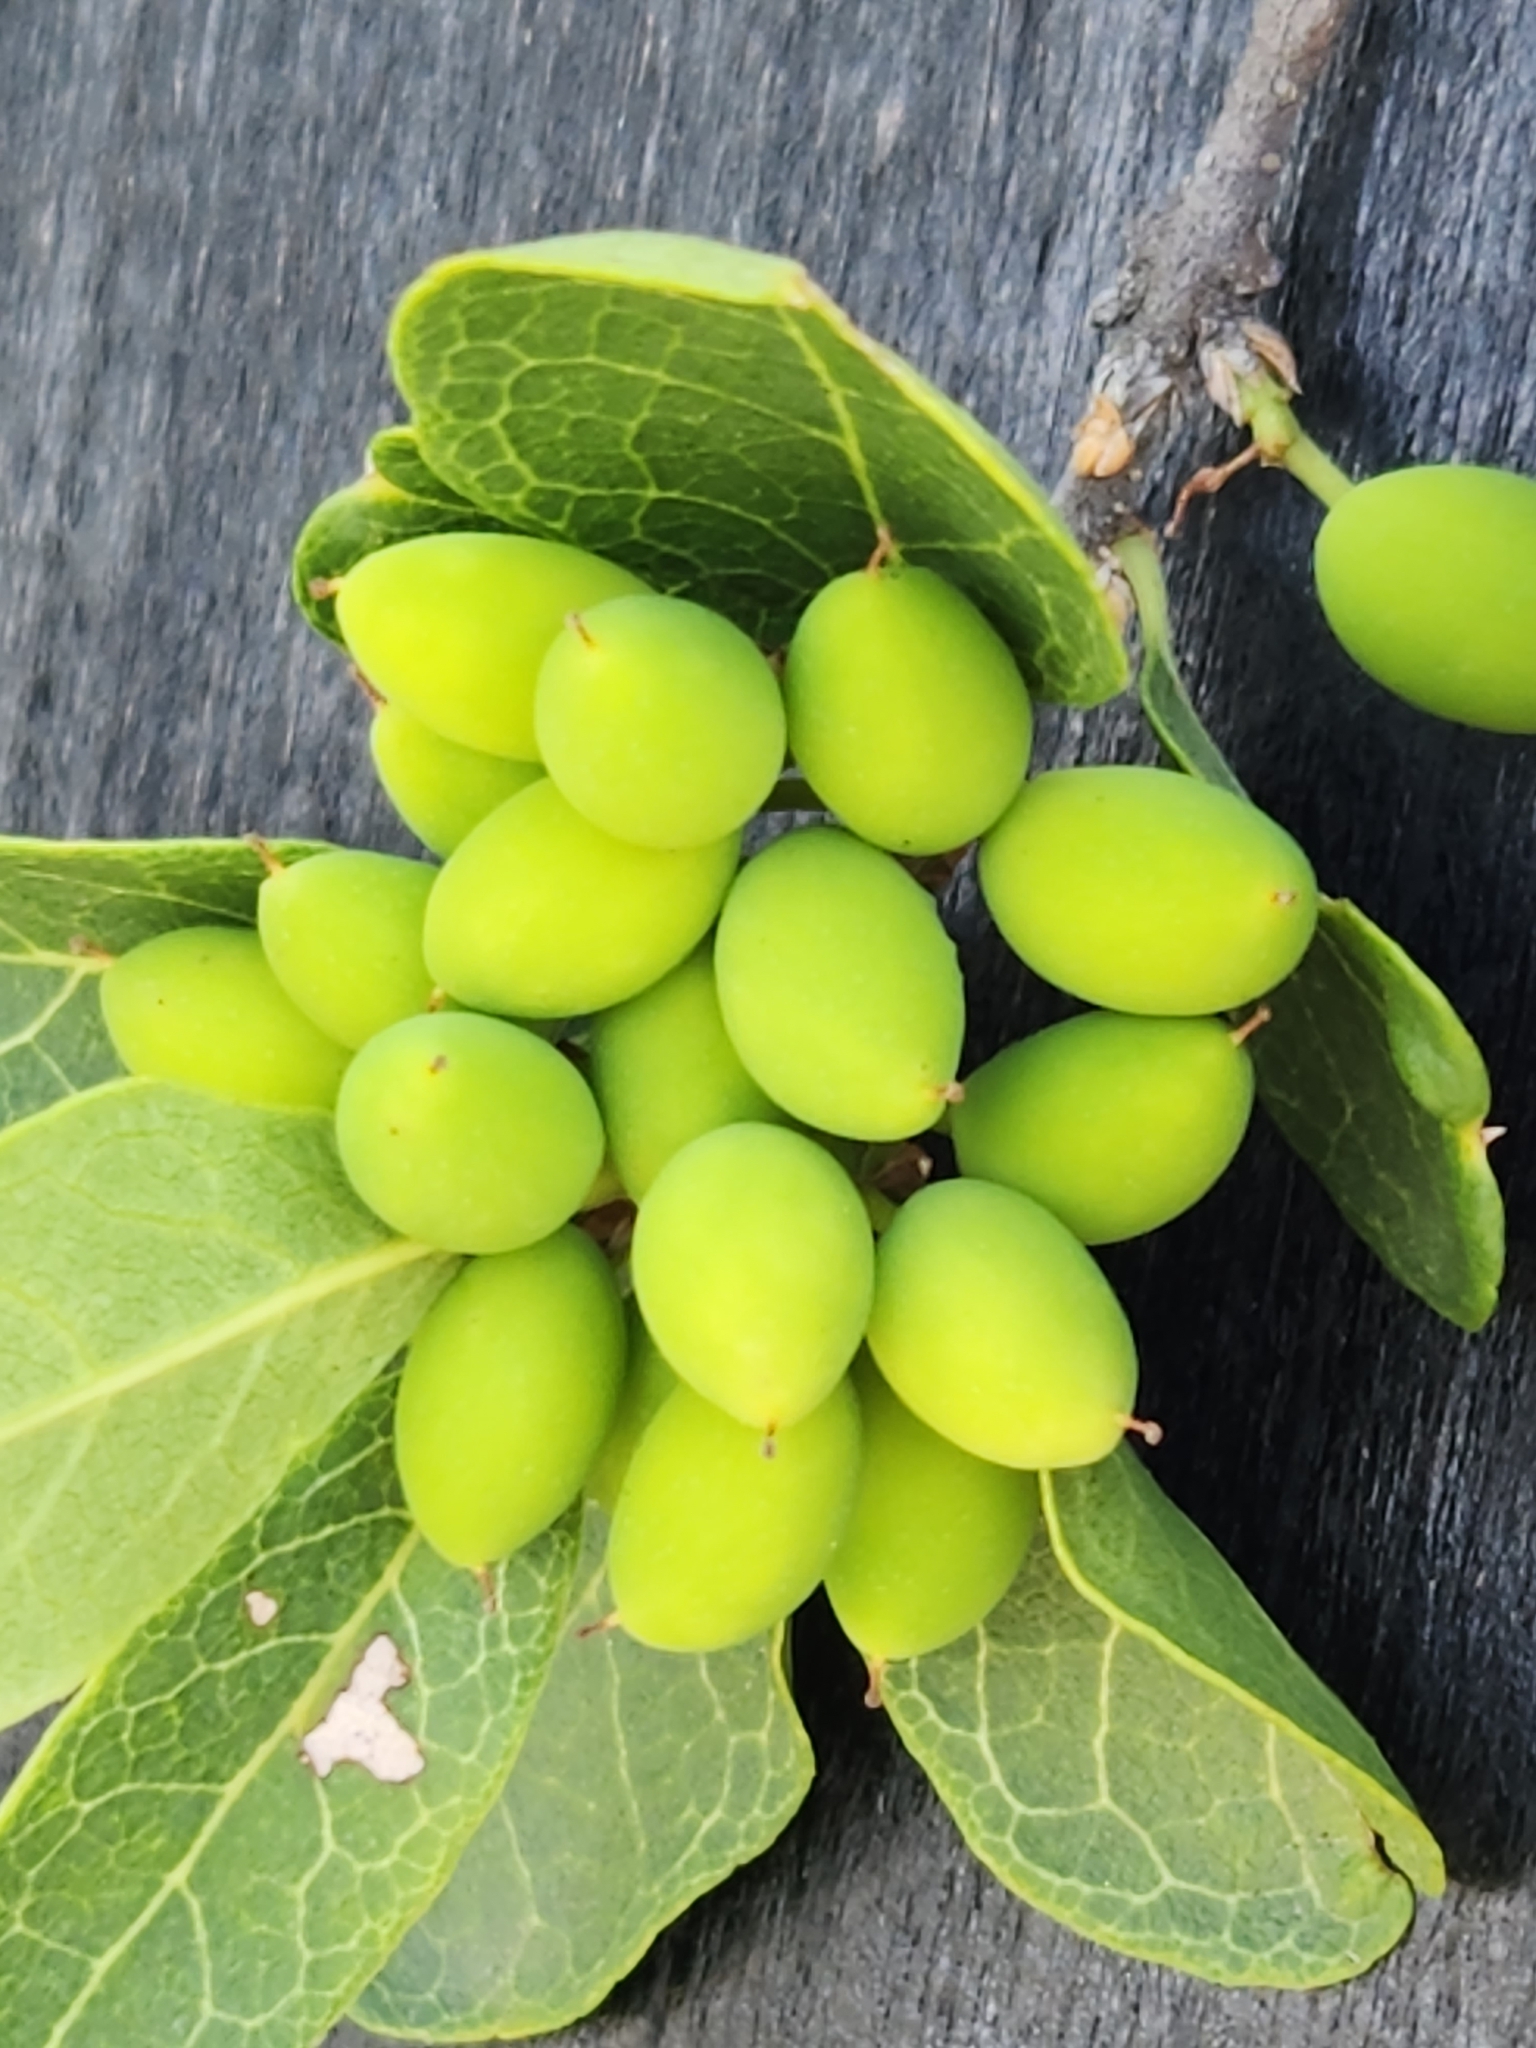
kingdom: Plantae
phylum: Tracheophyta
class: Magnoliopsida
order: Lamiales
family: Oleaceae
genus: Forestiera
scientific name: Forestiera reticulata
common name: Netleaf swamp-privet
